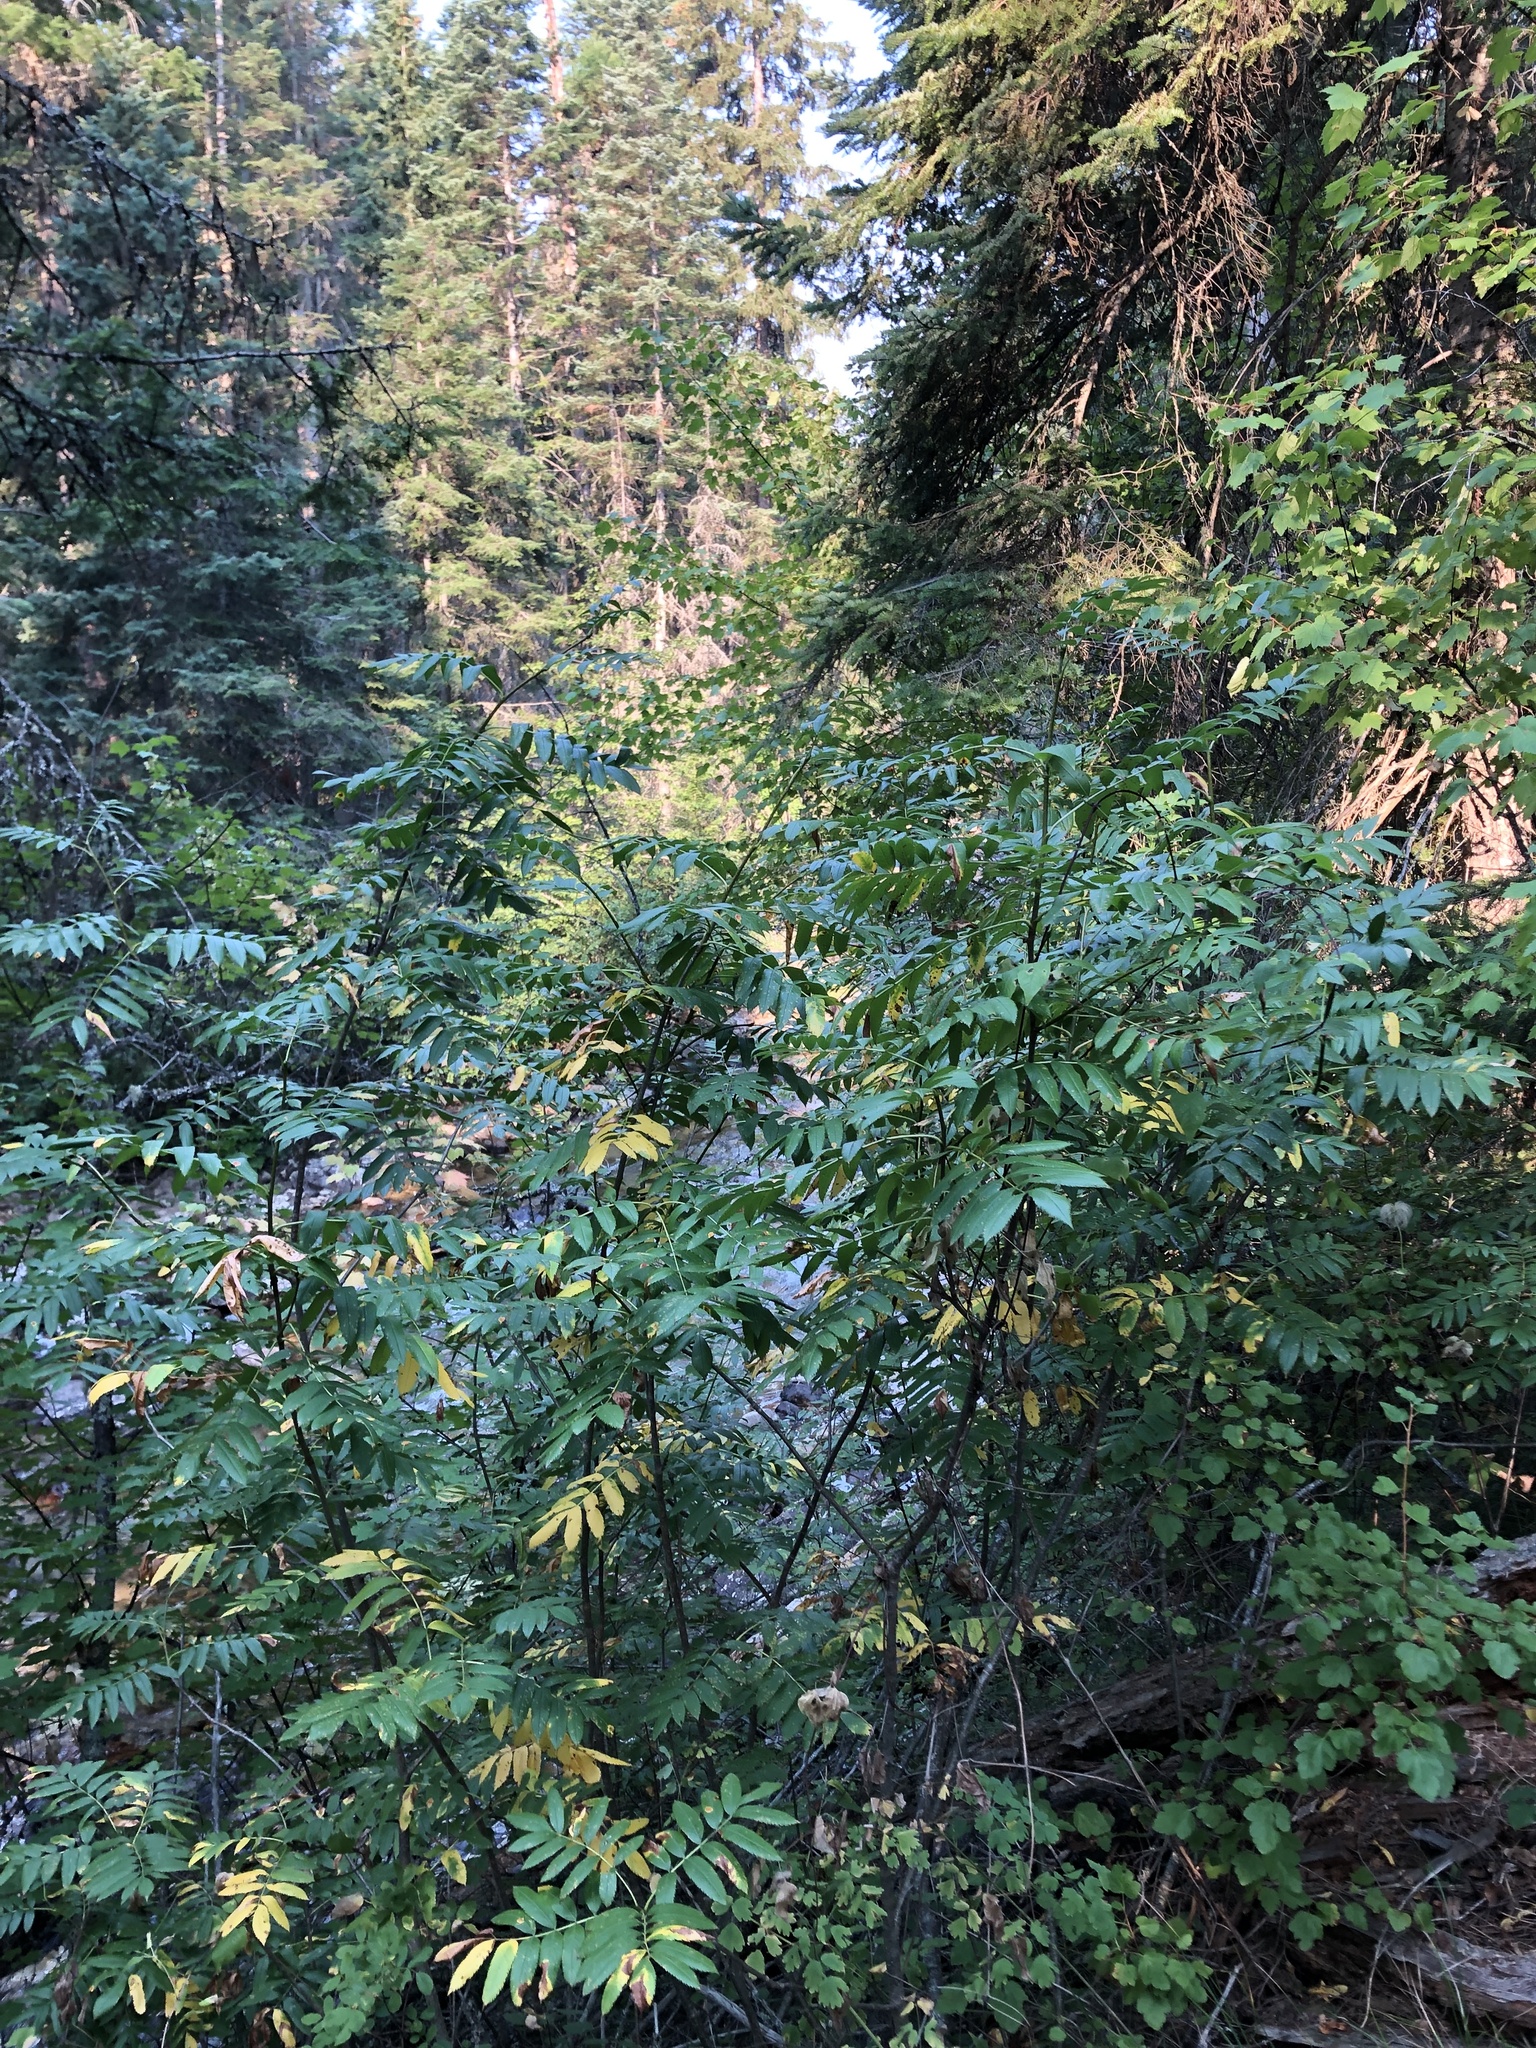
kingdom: Plantae
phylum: Tracheophyta
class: Magnoliopsida
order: Rosales
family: Rosaceae
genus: Sorbus
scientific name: Sorbus scopulina
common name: Greene's mountain-ash
